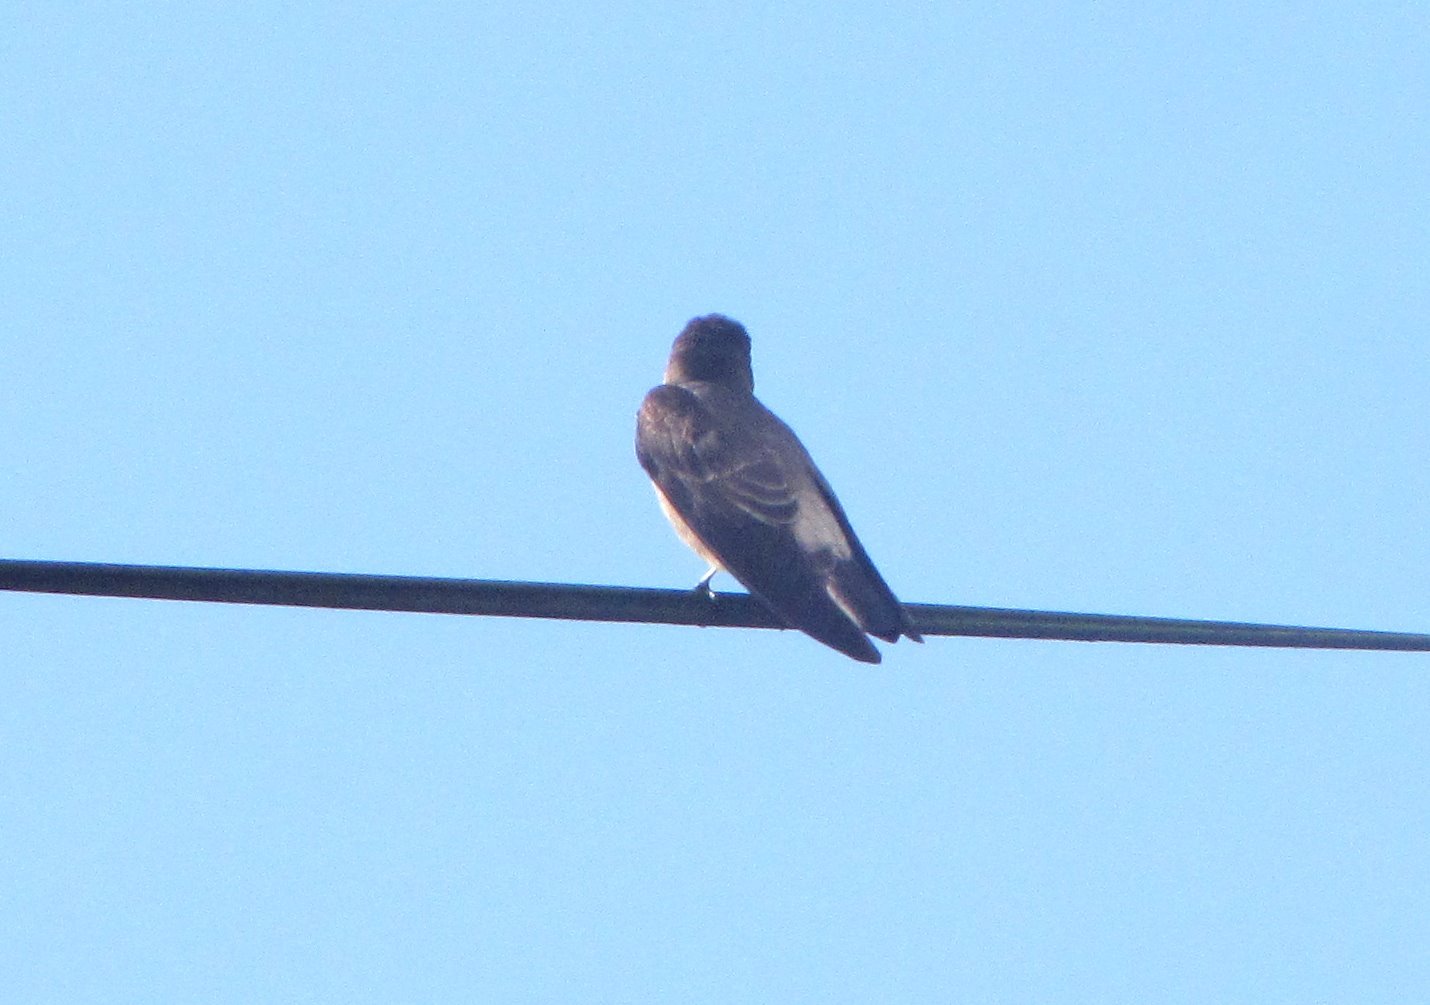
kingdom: Animalia
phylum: Chordata
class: Aves
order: Passeriformes
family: Hirundinidae
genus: Stelgidopteryx
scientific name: Stelgidopteryx ruficollis
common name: Southern rough-winged swallow
